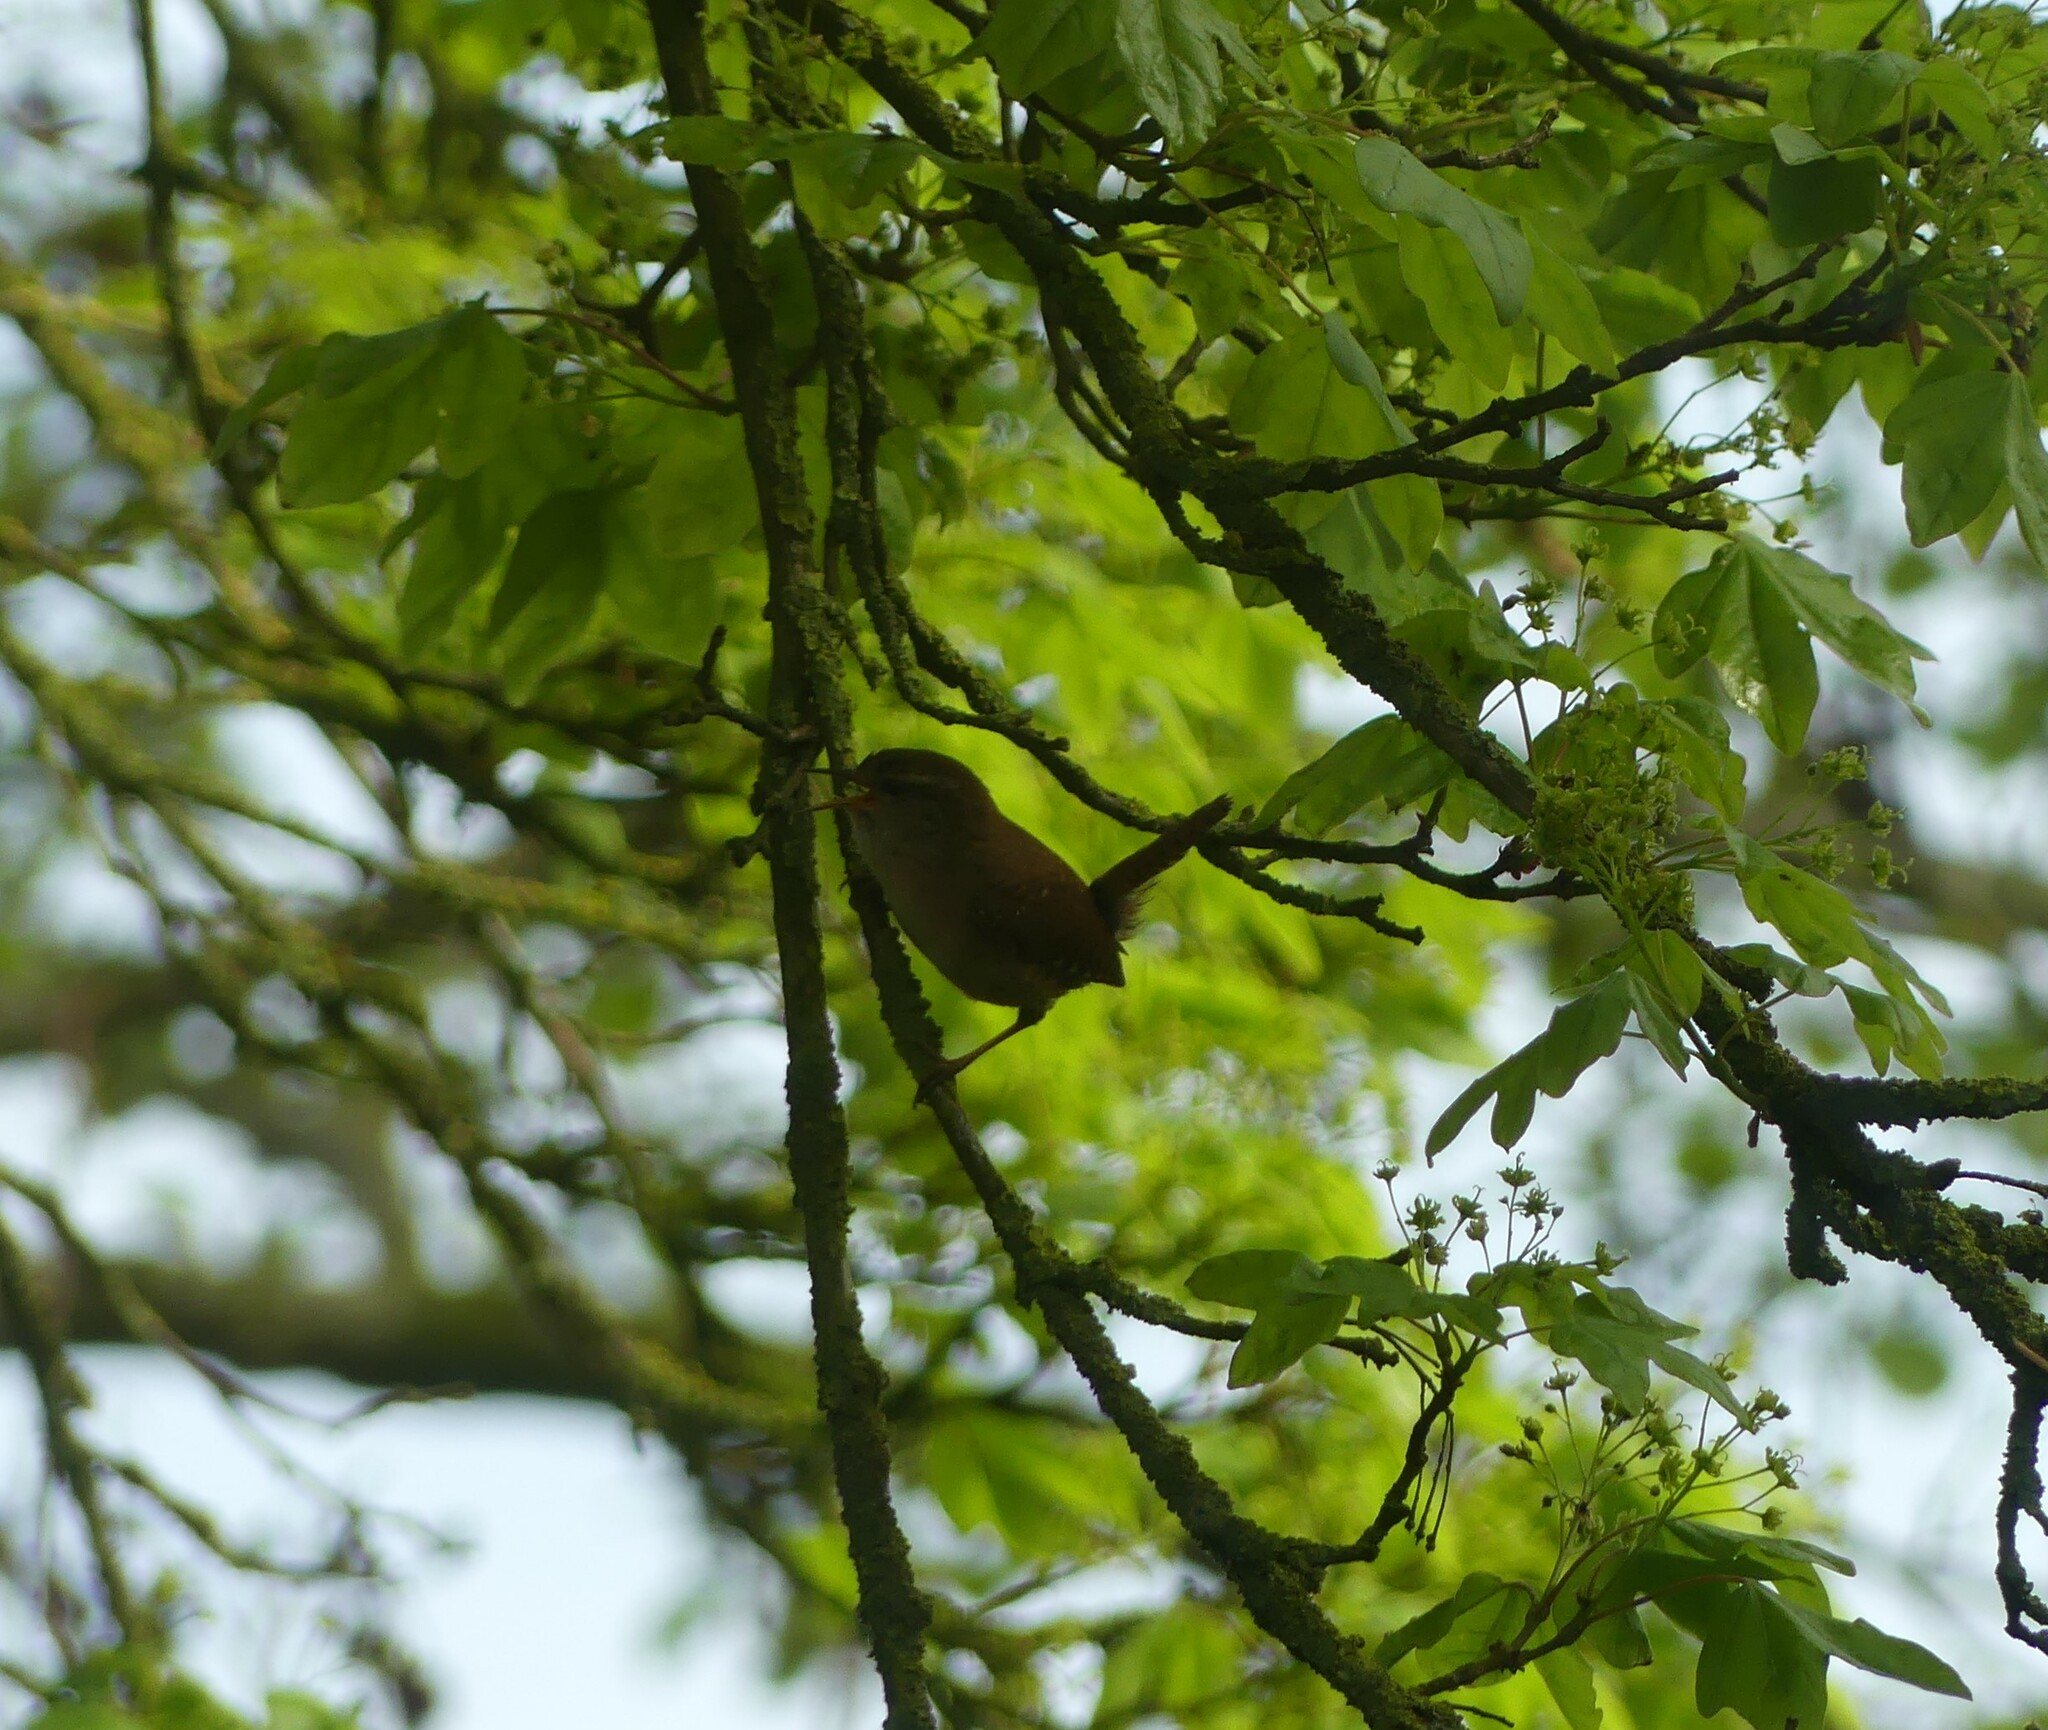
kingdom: Animalia
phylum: Chordata
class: Aves
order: Passeriformes
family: Troglodytidae
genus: Troglodytes
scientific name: Troglodytes troglodytes
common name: Eurasian wren
